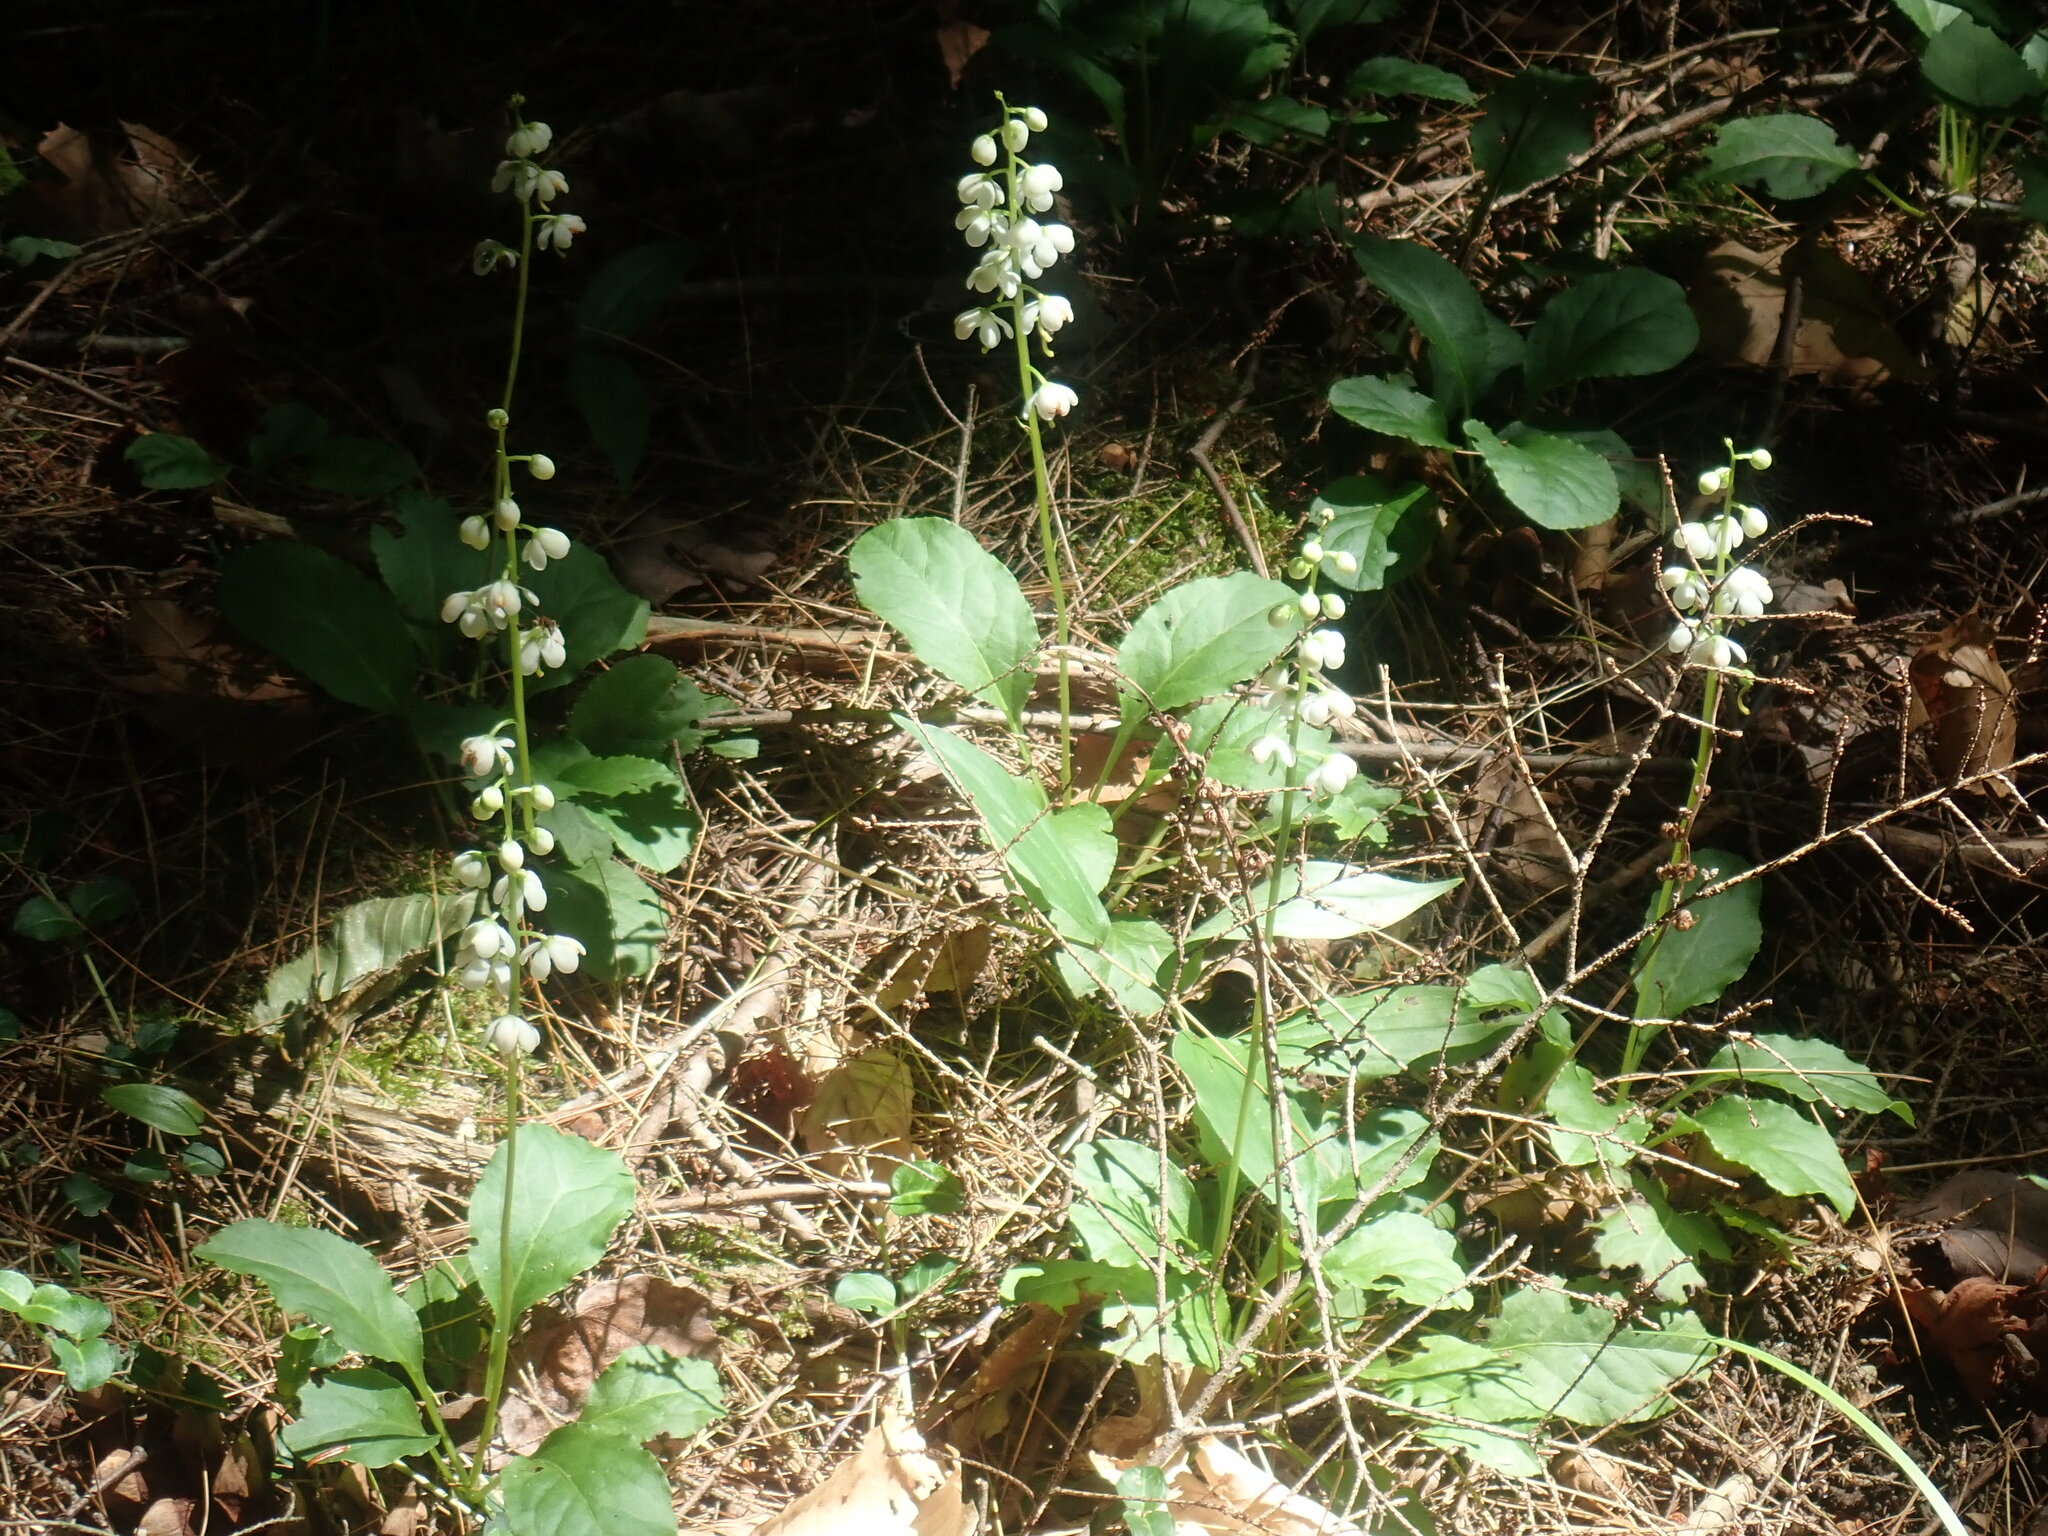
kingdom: Plantae
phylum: Tracheophyta
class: Magnoliopsida
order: Ericales
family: Ericaceae
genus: Pyrola
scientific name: Pyrola elliptica
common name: Shinleaf
